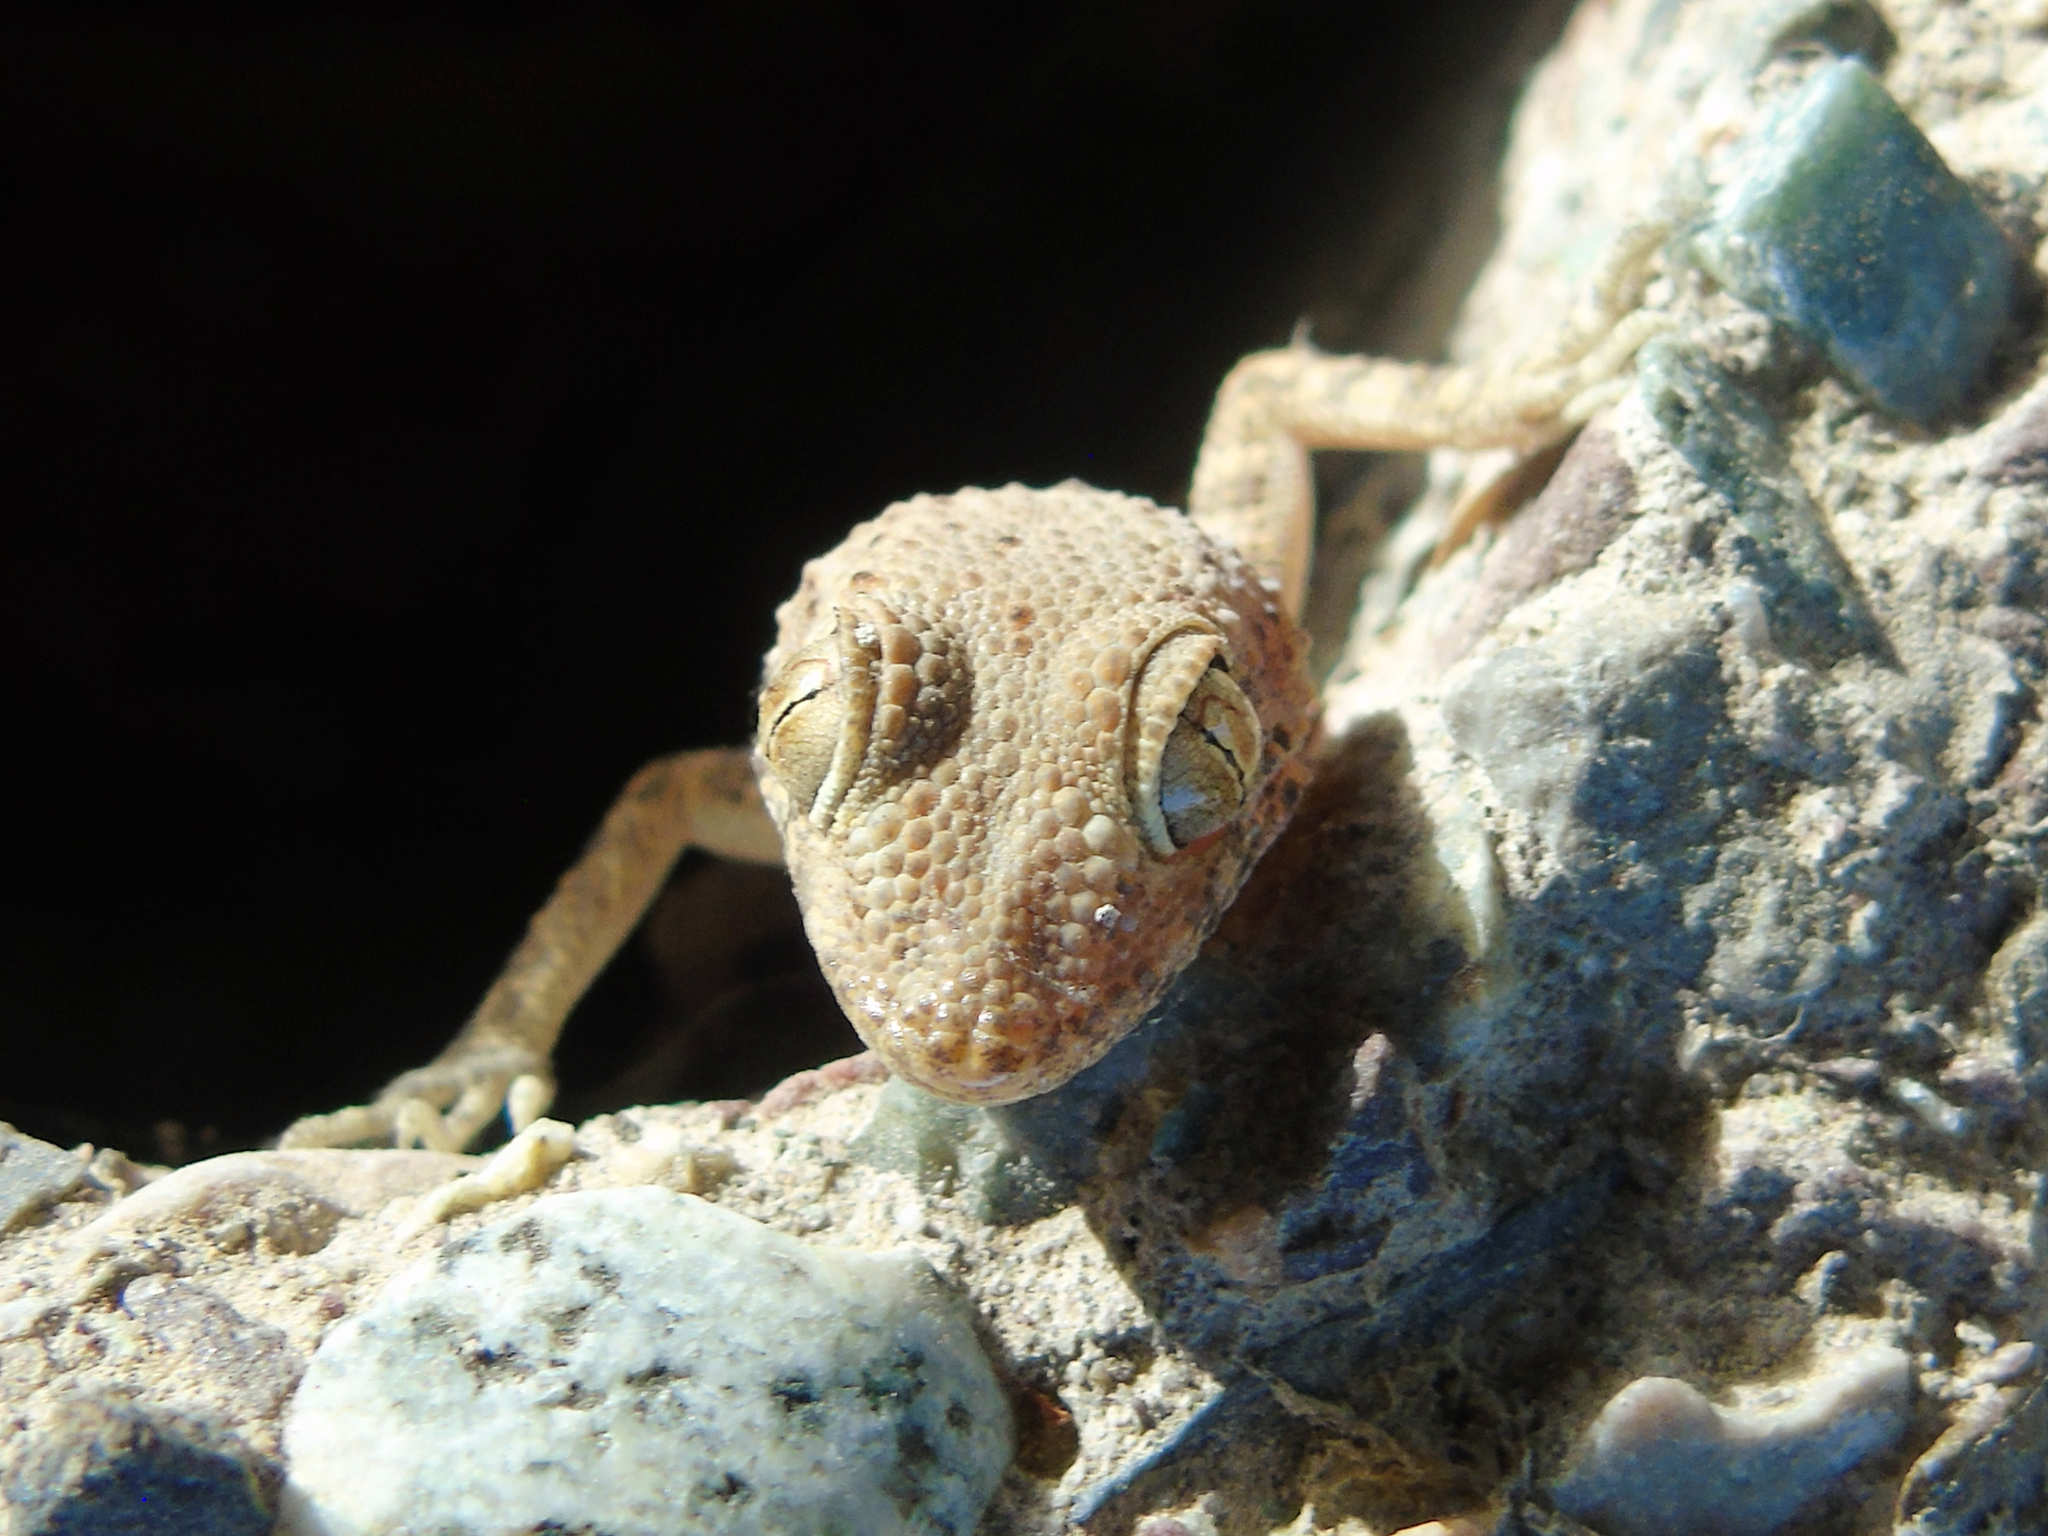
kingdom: Animalia
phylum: Chordata
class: Squamata
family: Gekkonidae
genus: Tenuidactylus
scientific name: Tenuidactylus fedtschenkoi
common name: Turkestan thin-toed gecko
